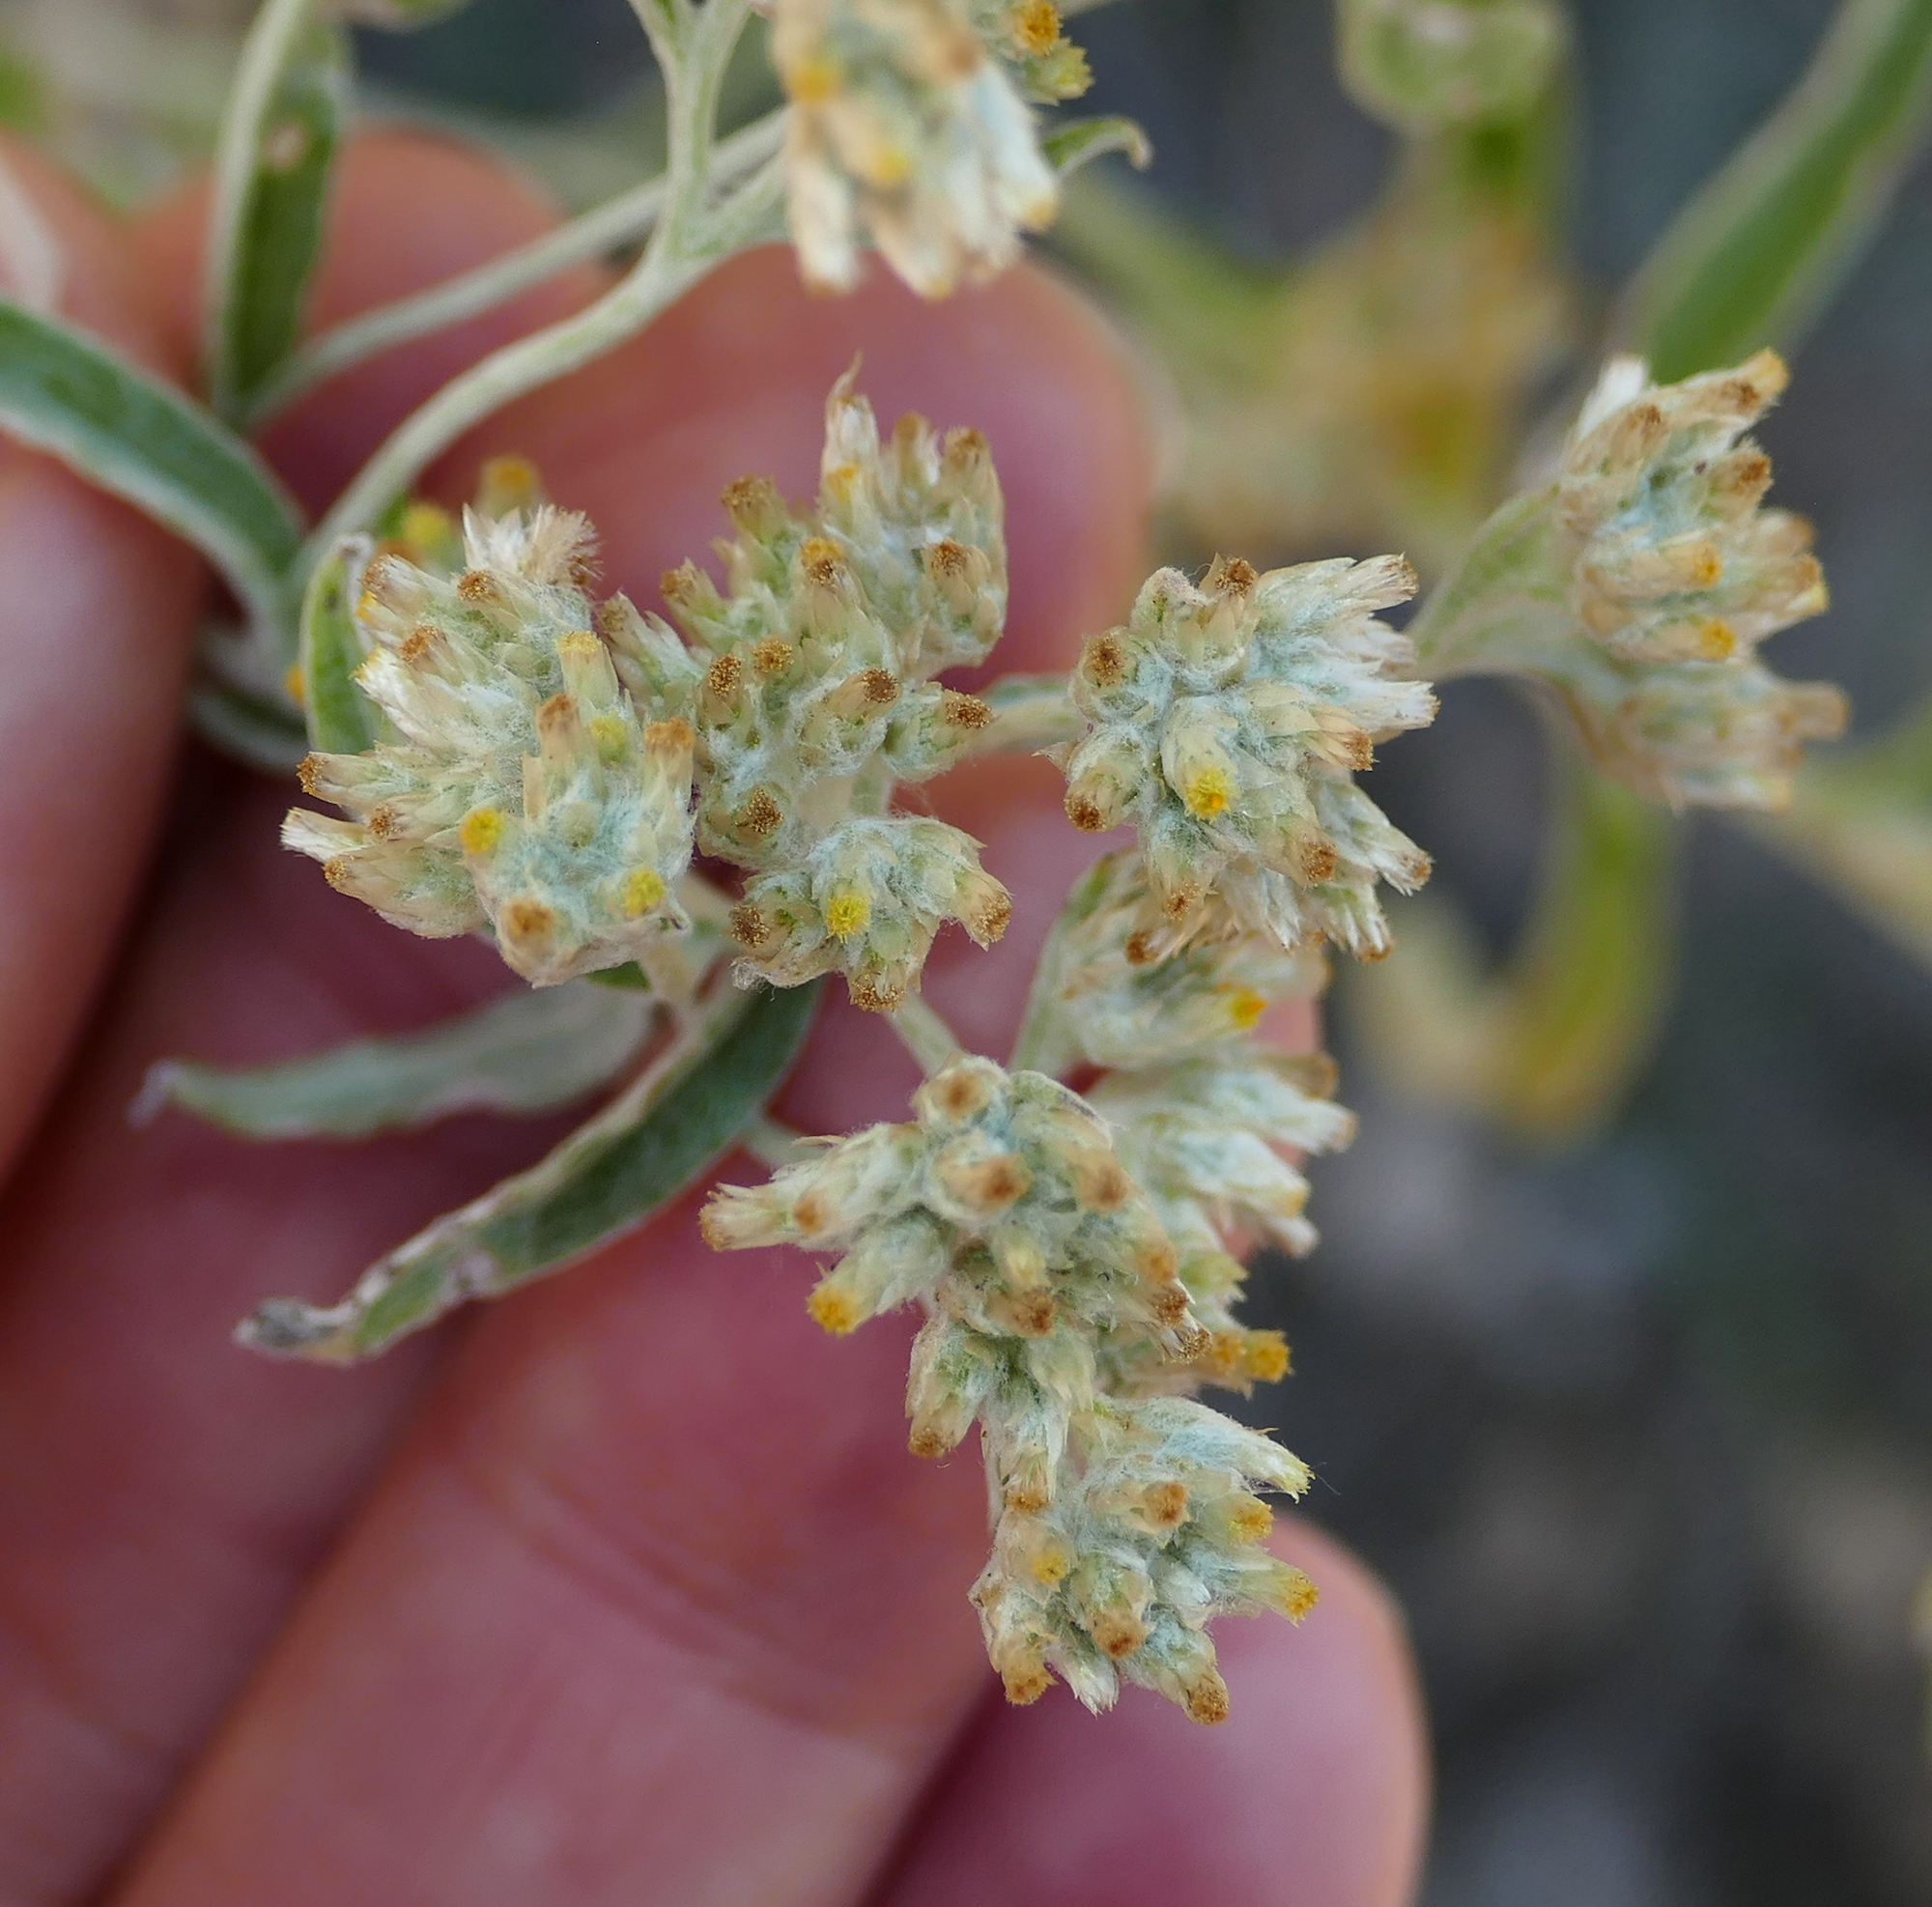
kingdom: Plantae
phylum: Tracheophyta
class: Magnoliopsida
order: Asterales
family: Asteraceae
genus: Pseudognaphalium
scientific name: Pseudognaphalium canescens
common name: Wright's rabbit-tobacco
